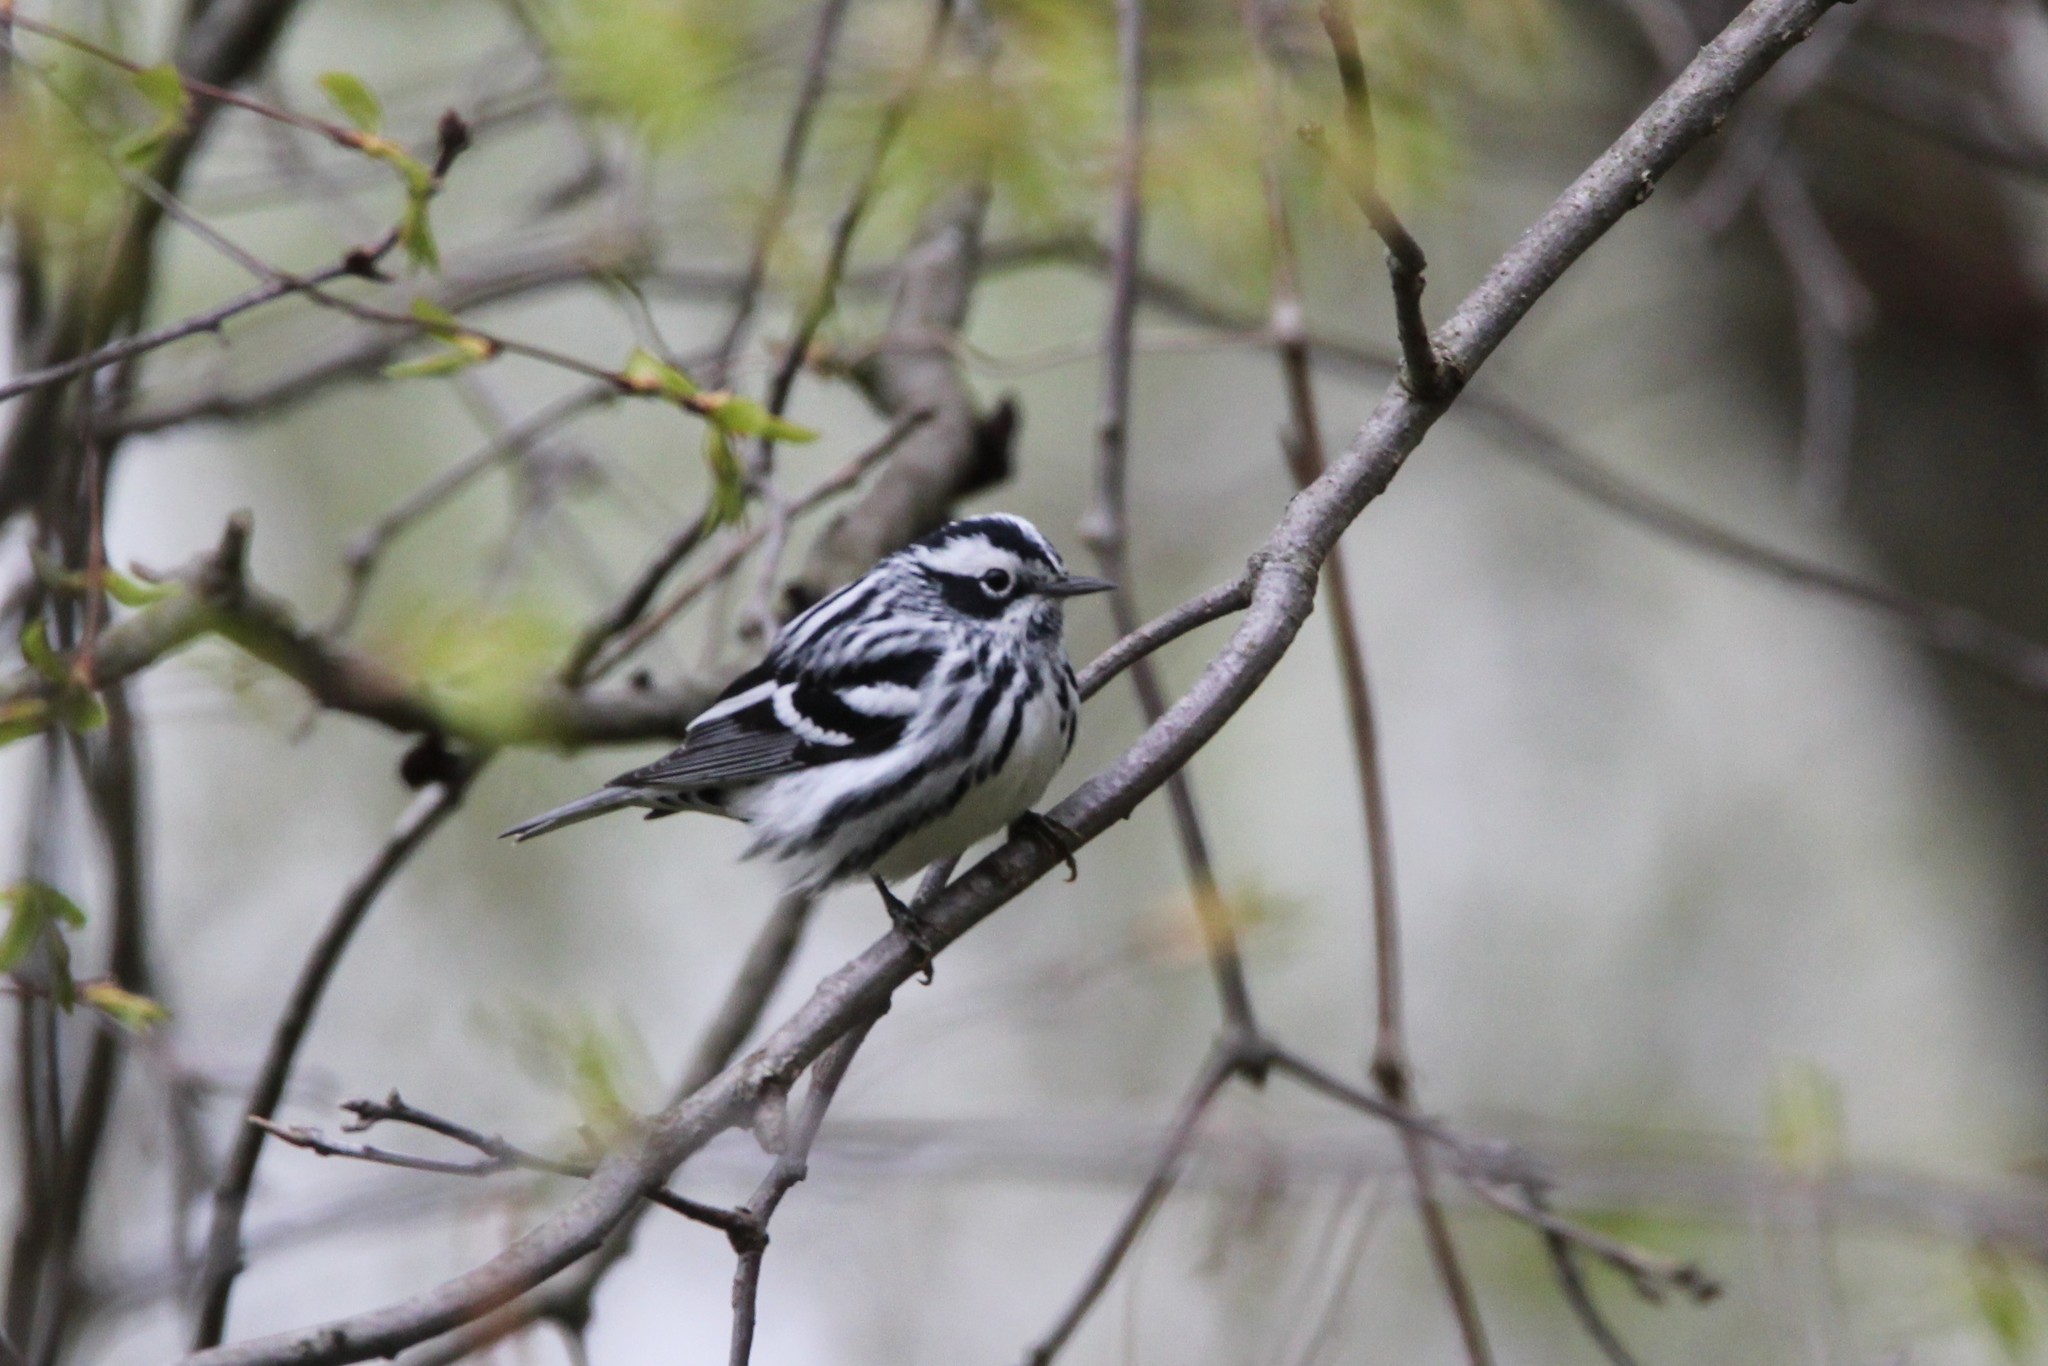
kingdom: Animalia
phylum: Chordata
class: Aves
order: Passeriformes
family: Parulidae
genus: Mniotilta
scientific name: Mniotilta varia
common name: Black-and-white warbler
